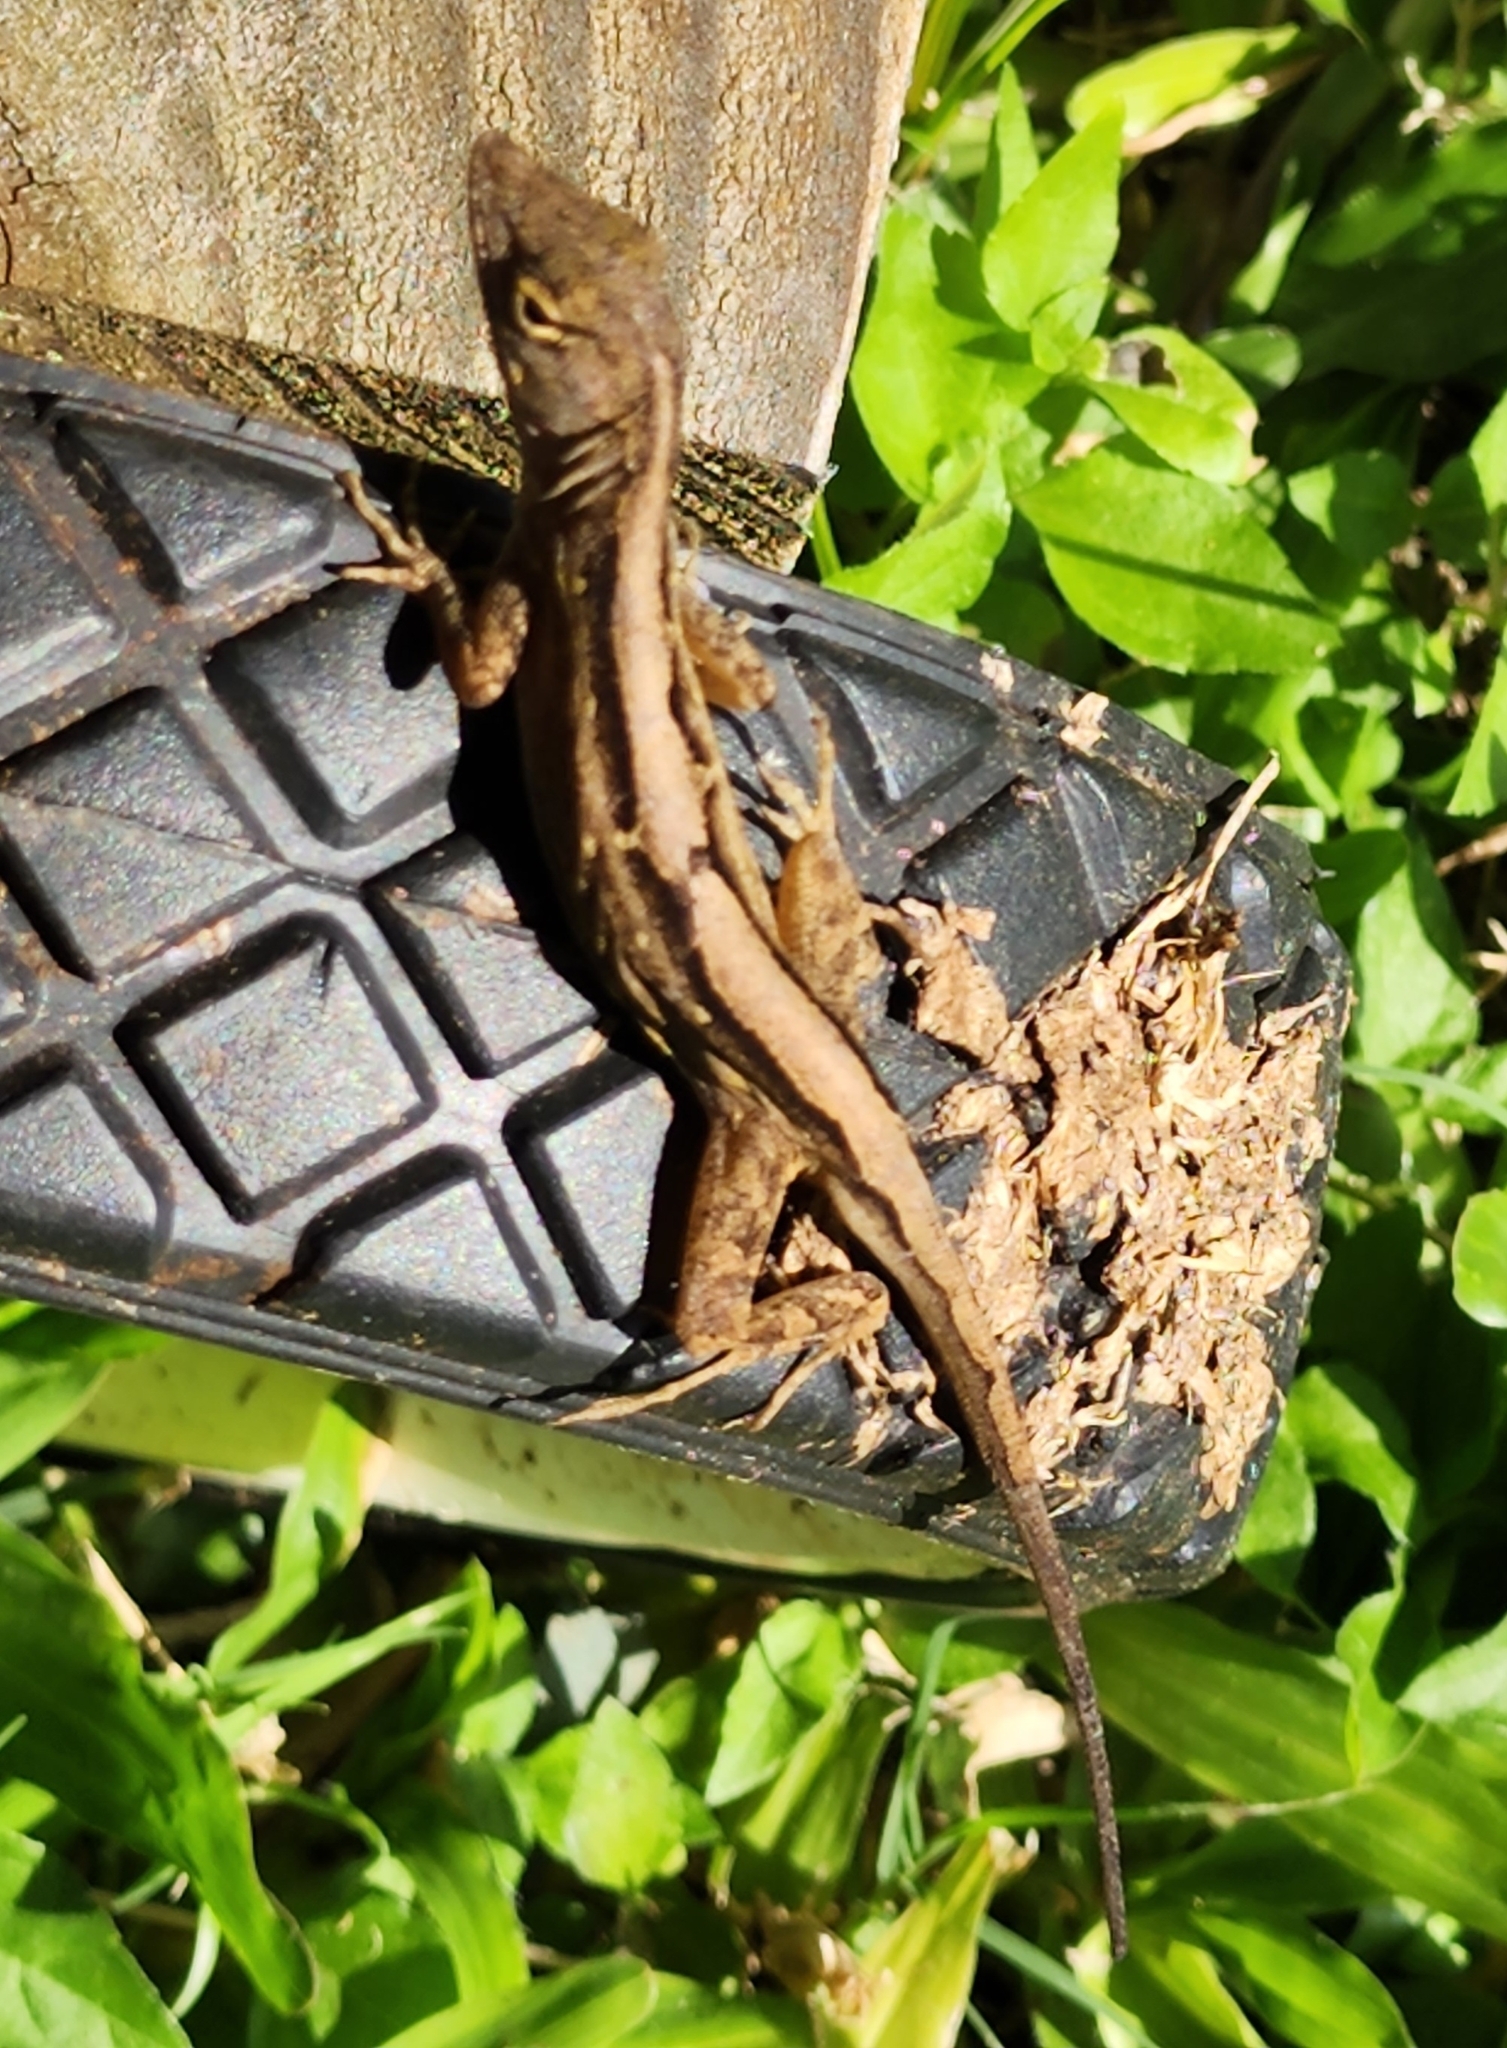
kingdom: Animalia
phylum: Chordata
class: Squamata
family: Dactyloidae
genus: Anolis
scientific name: Anolis sagrei
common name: Brown anole
